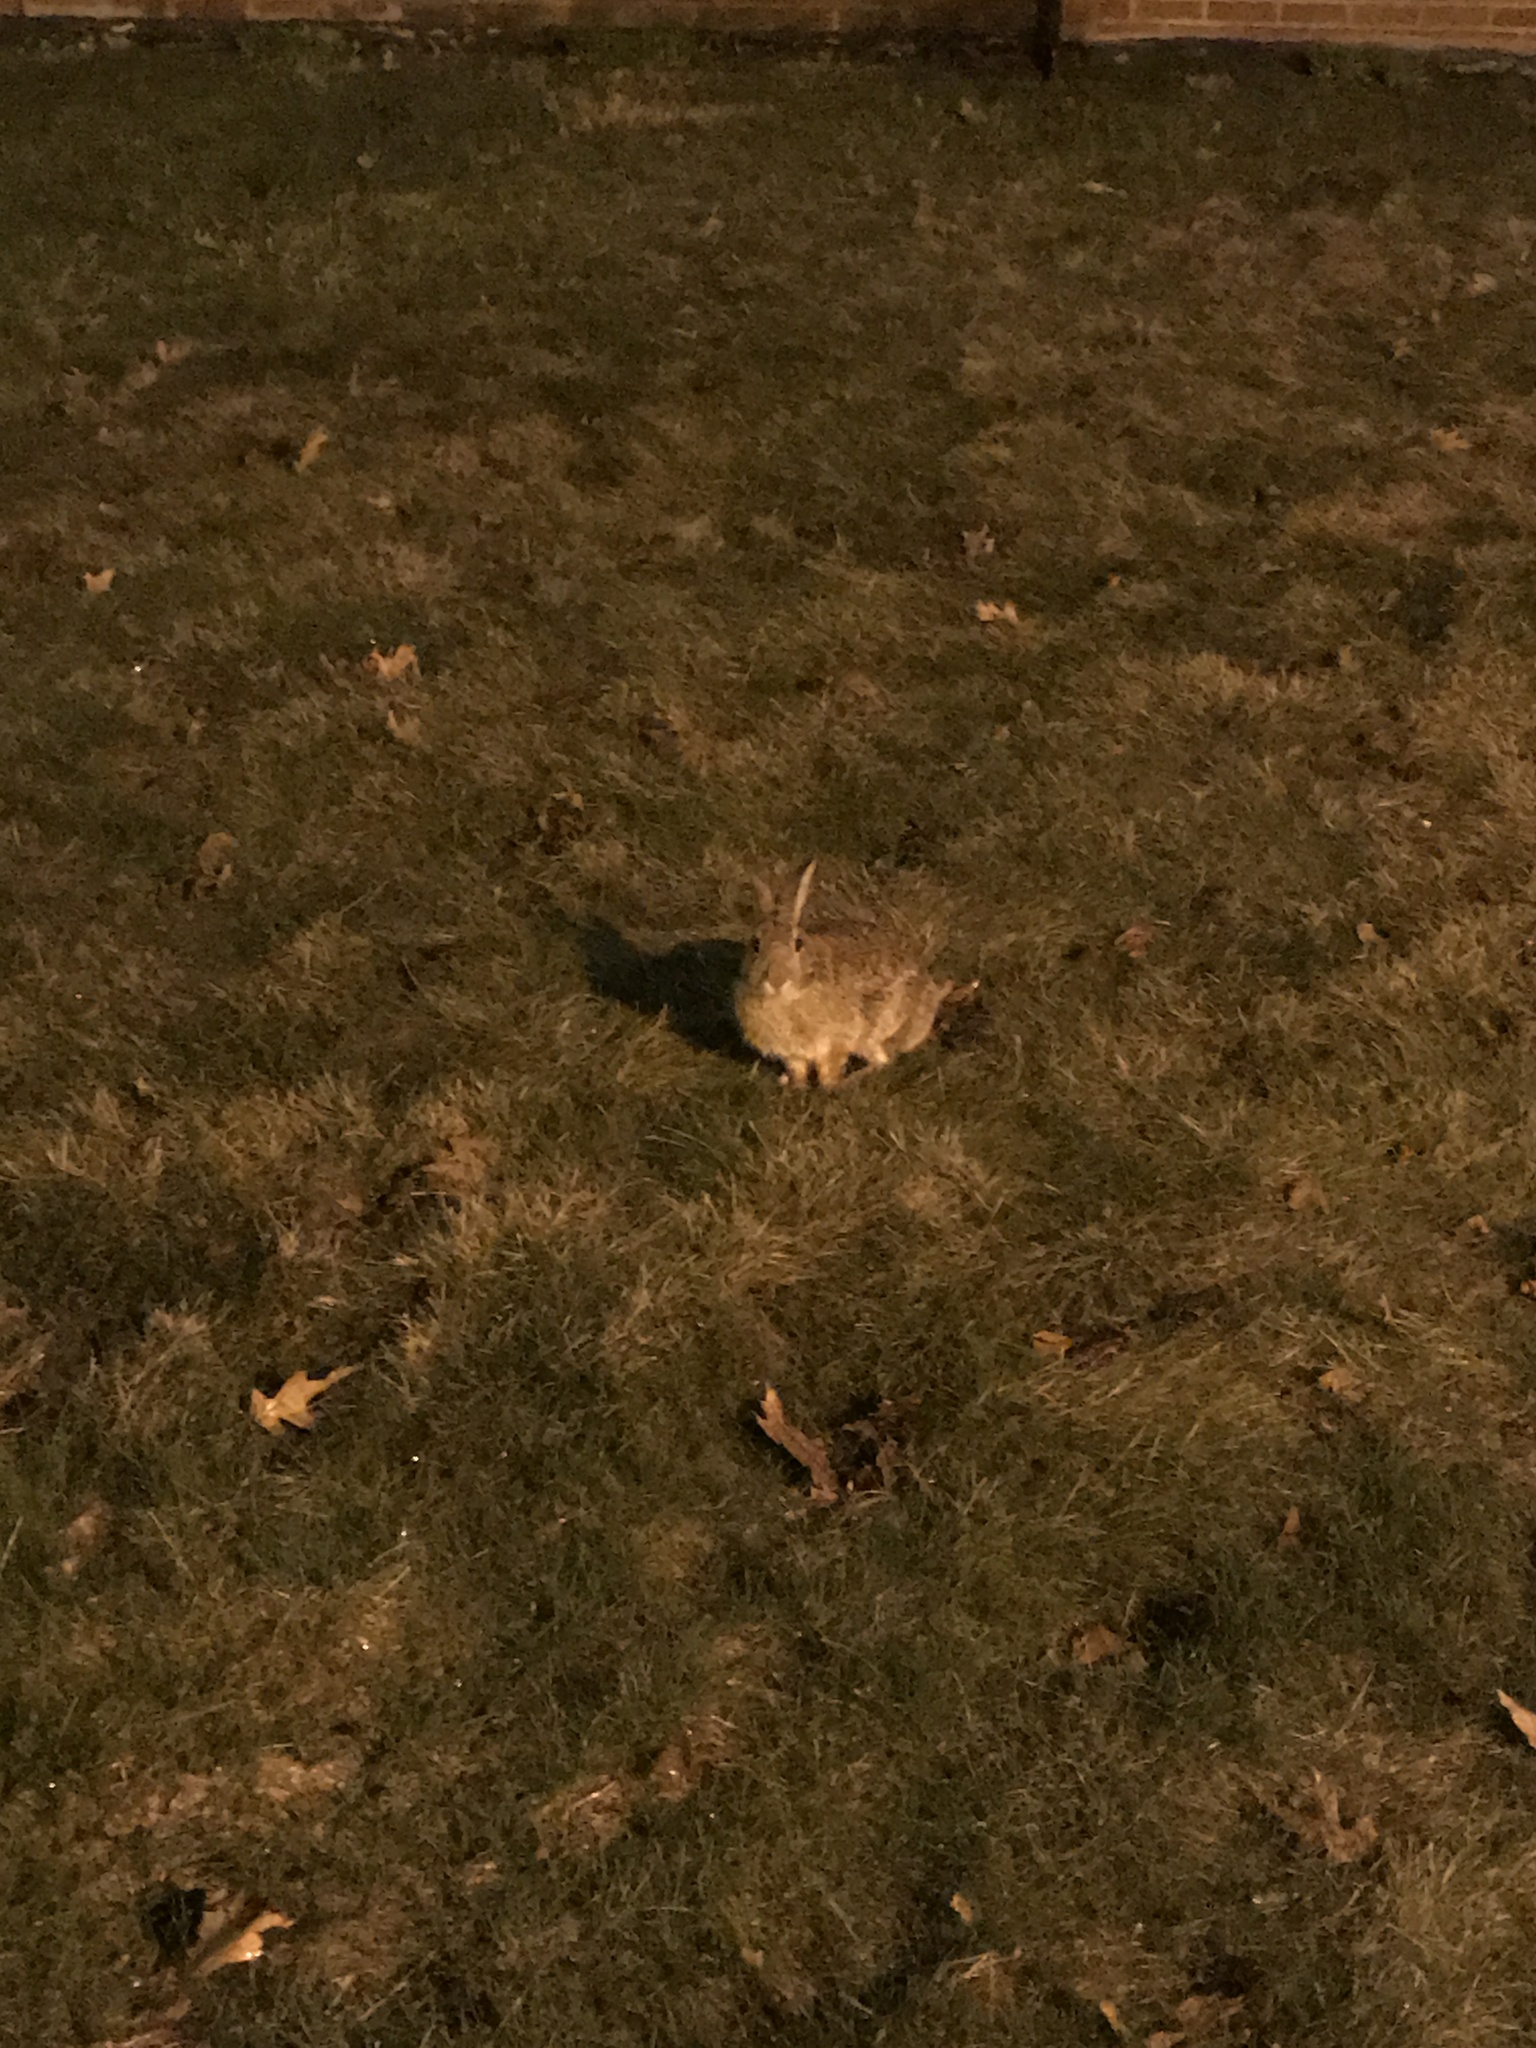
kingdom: Animalia
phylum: Chordata
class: Mammalia
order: Lagomorpha
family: Leporidae
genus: Sylvilagus
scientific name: Sylvilagus floridanus
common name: Eastern cottontail
